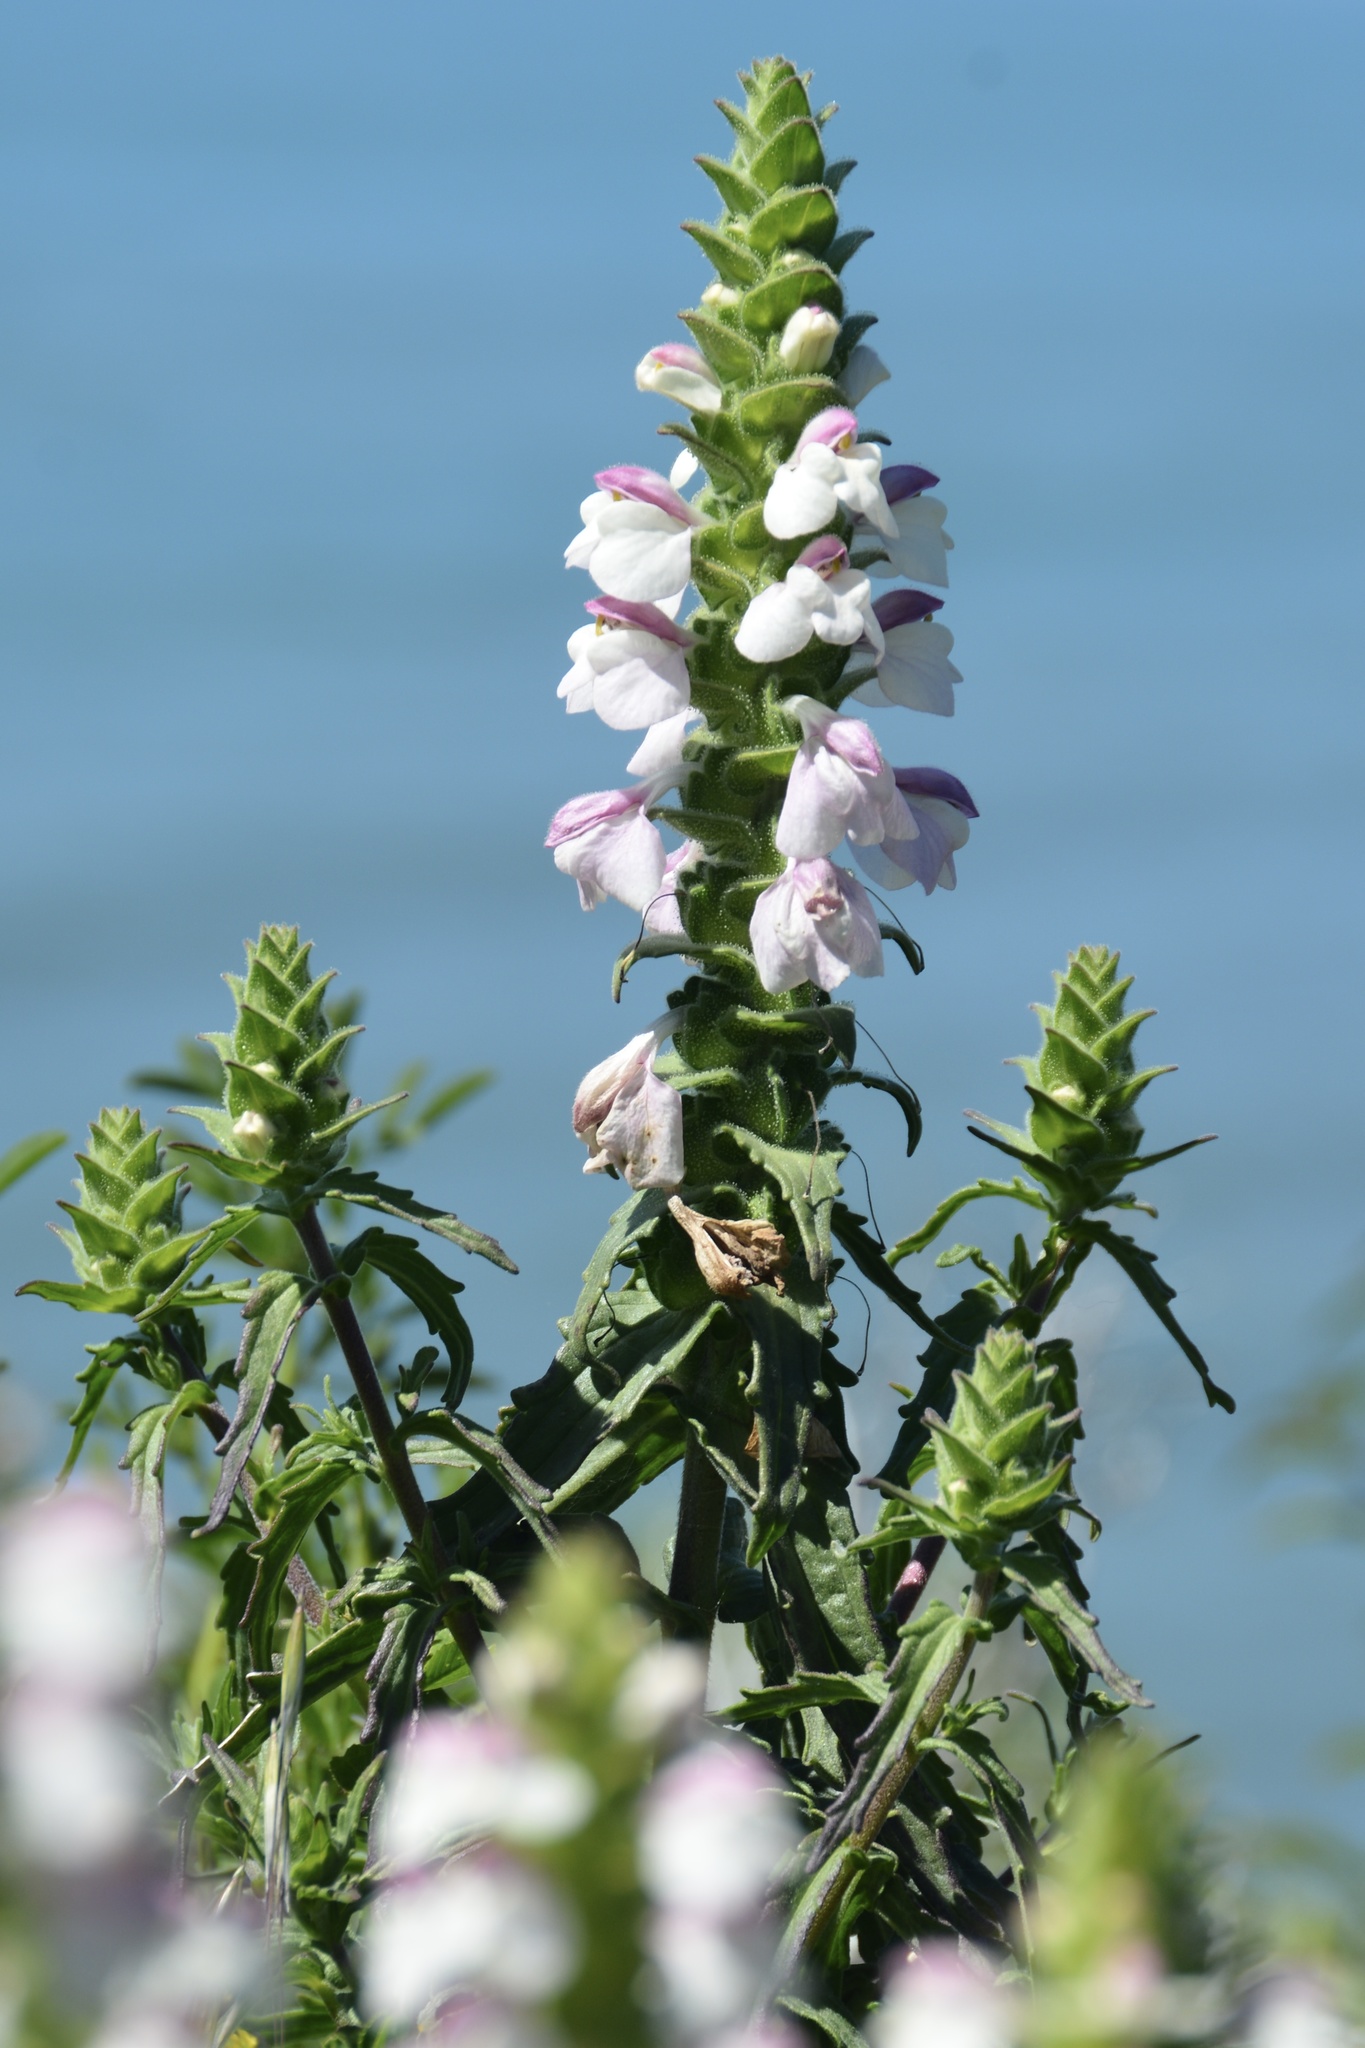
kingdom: Plantae
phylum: Tracheophyta
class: Magnoliopsida
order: Lamiales
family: Orobanchaceae
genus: Bellardia
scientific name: Bellardia trixago
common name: Mediterranean lineseed
